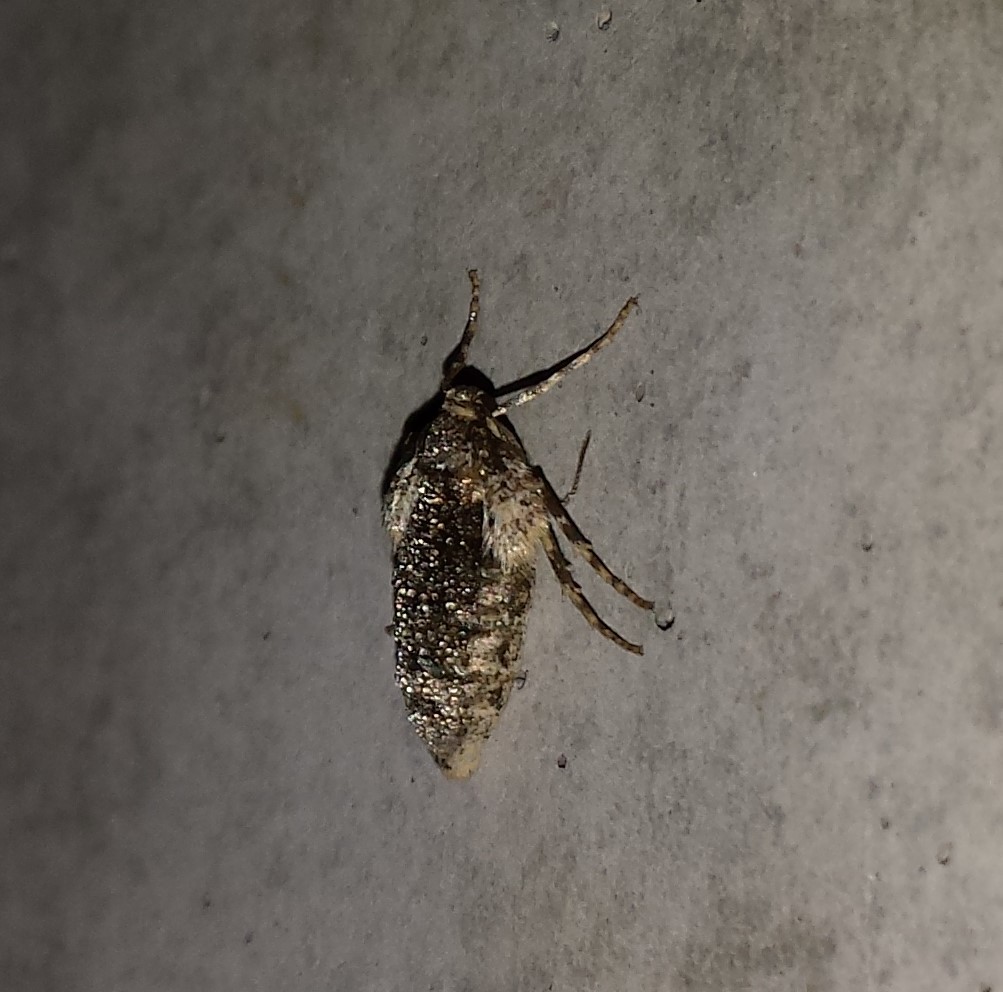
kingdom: Animalia
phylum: Arthropoda
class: Insecta
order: Lepidoptera
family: Geometridae
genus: Operophtera
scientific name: Operophtera brumata
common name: Winter moth
